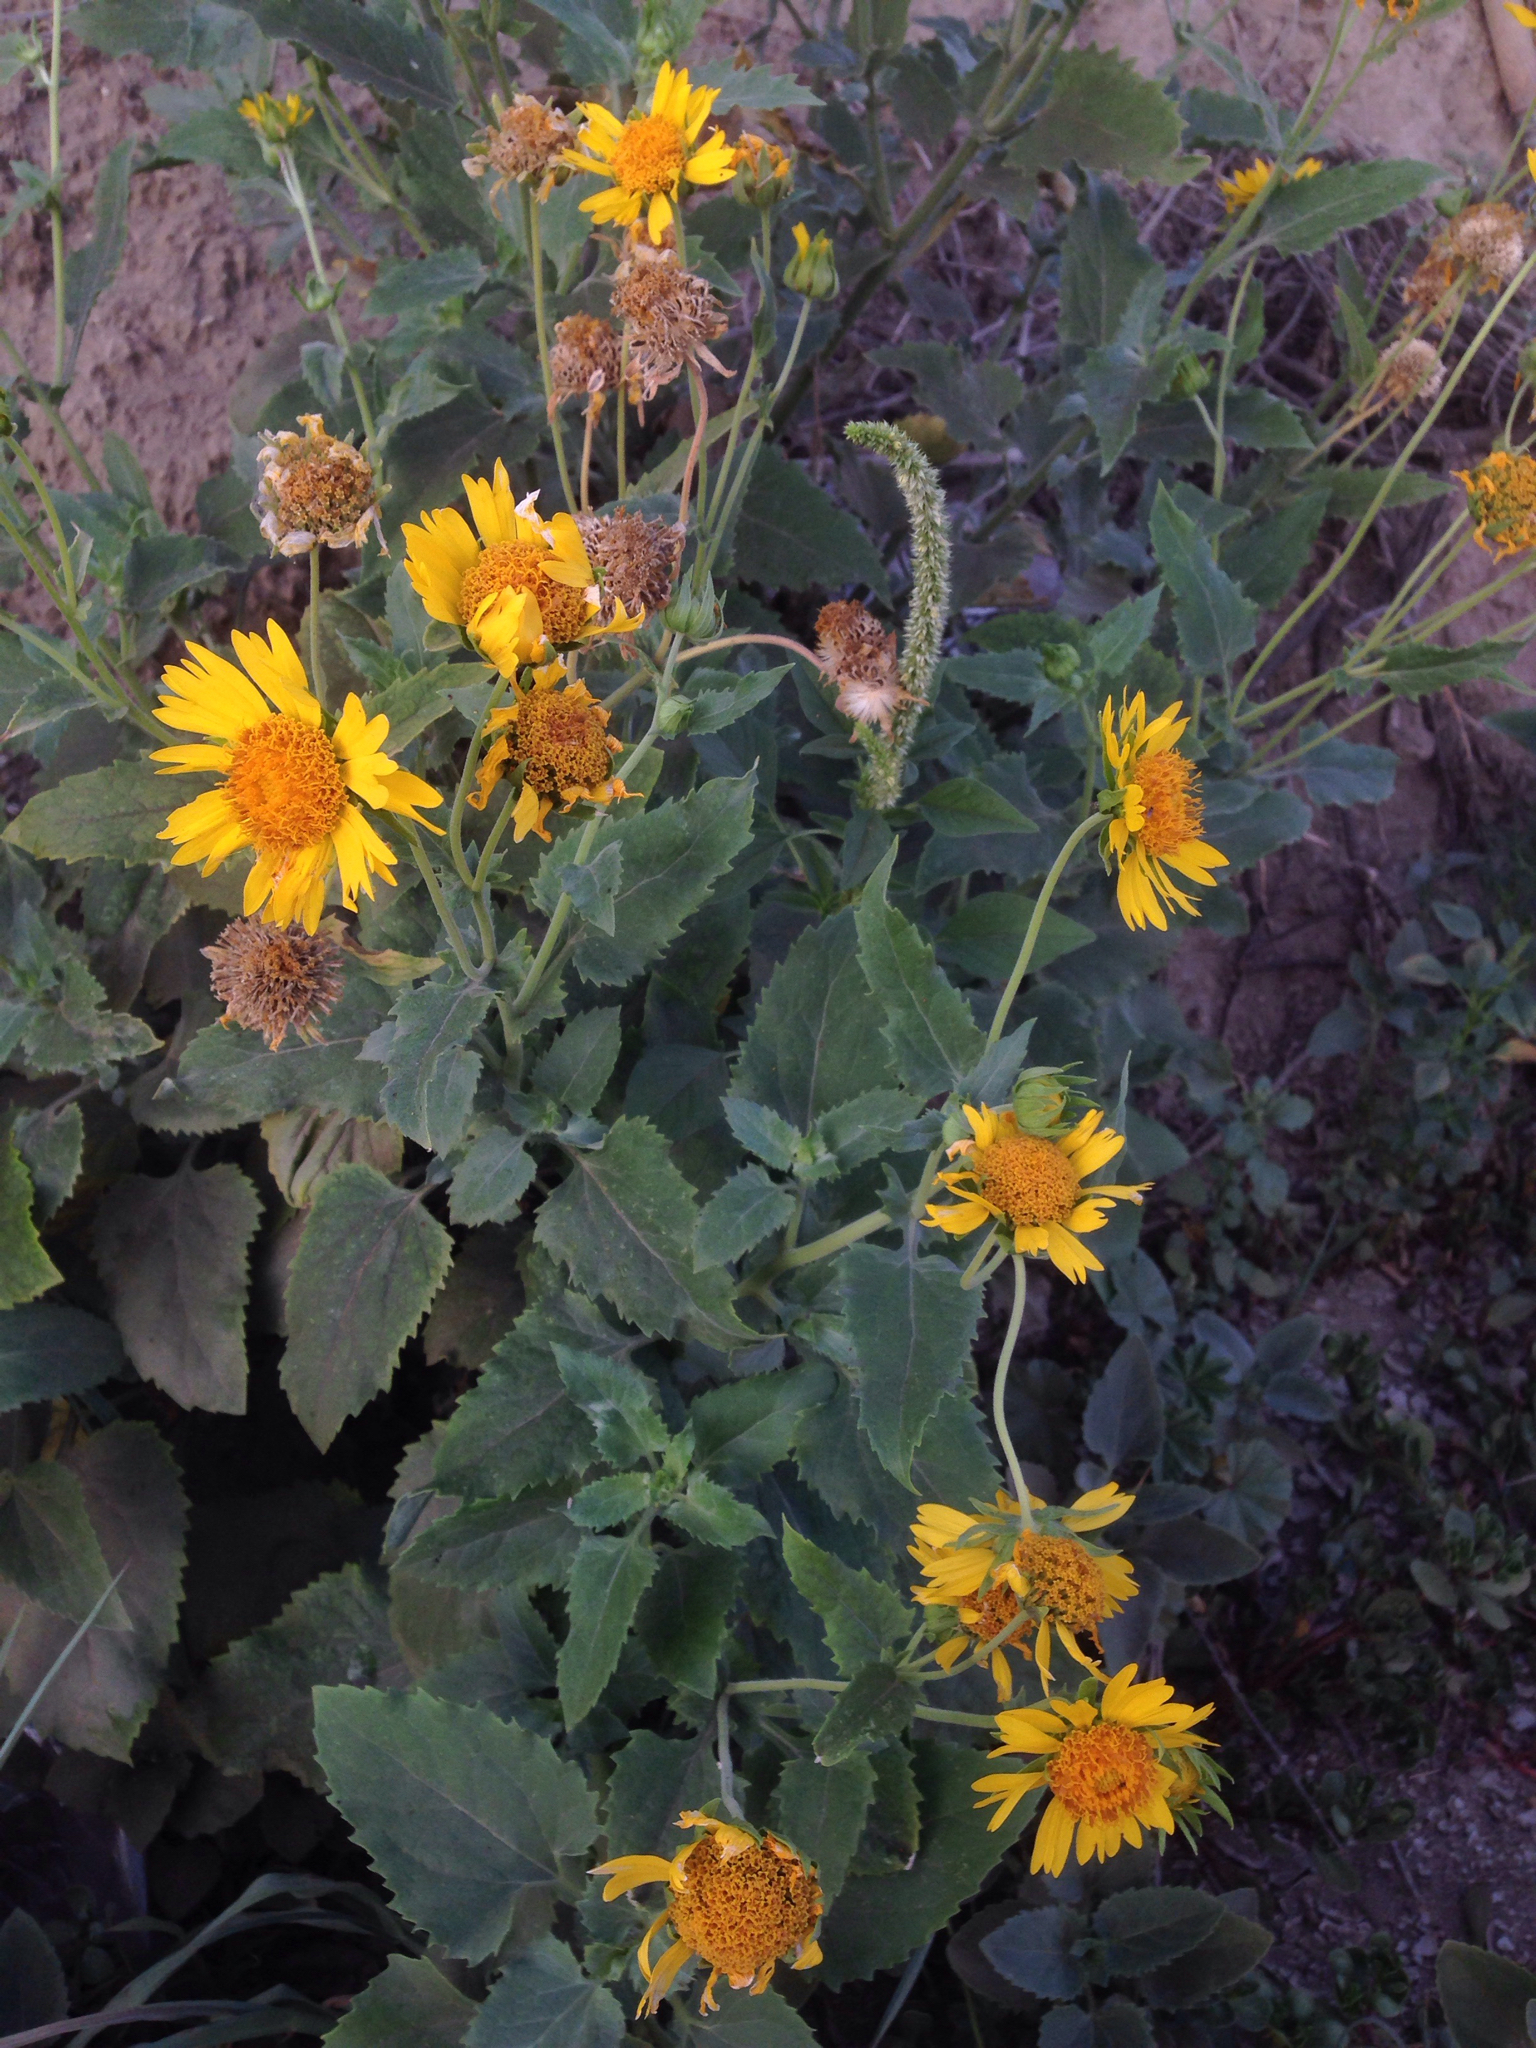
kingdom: Plantae
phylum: Tracheophyta
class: Magnoliopsida
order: Asterales
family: Asteraceae
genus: Verbesina
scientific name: Verbesina encelioides
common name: Golden crownbeard
